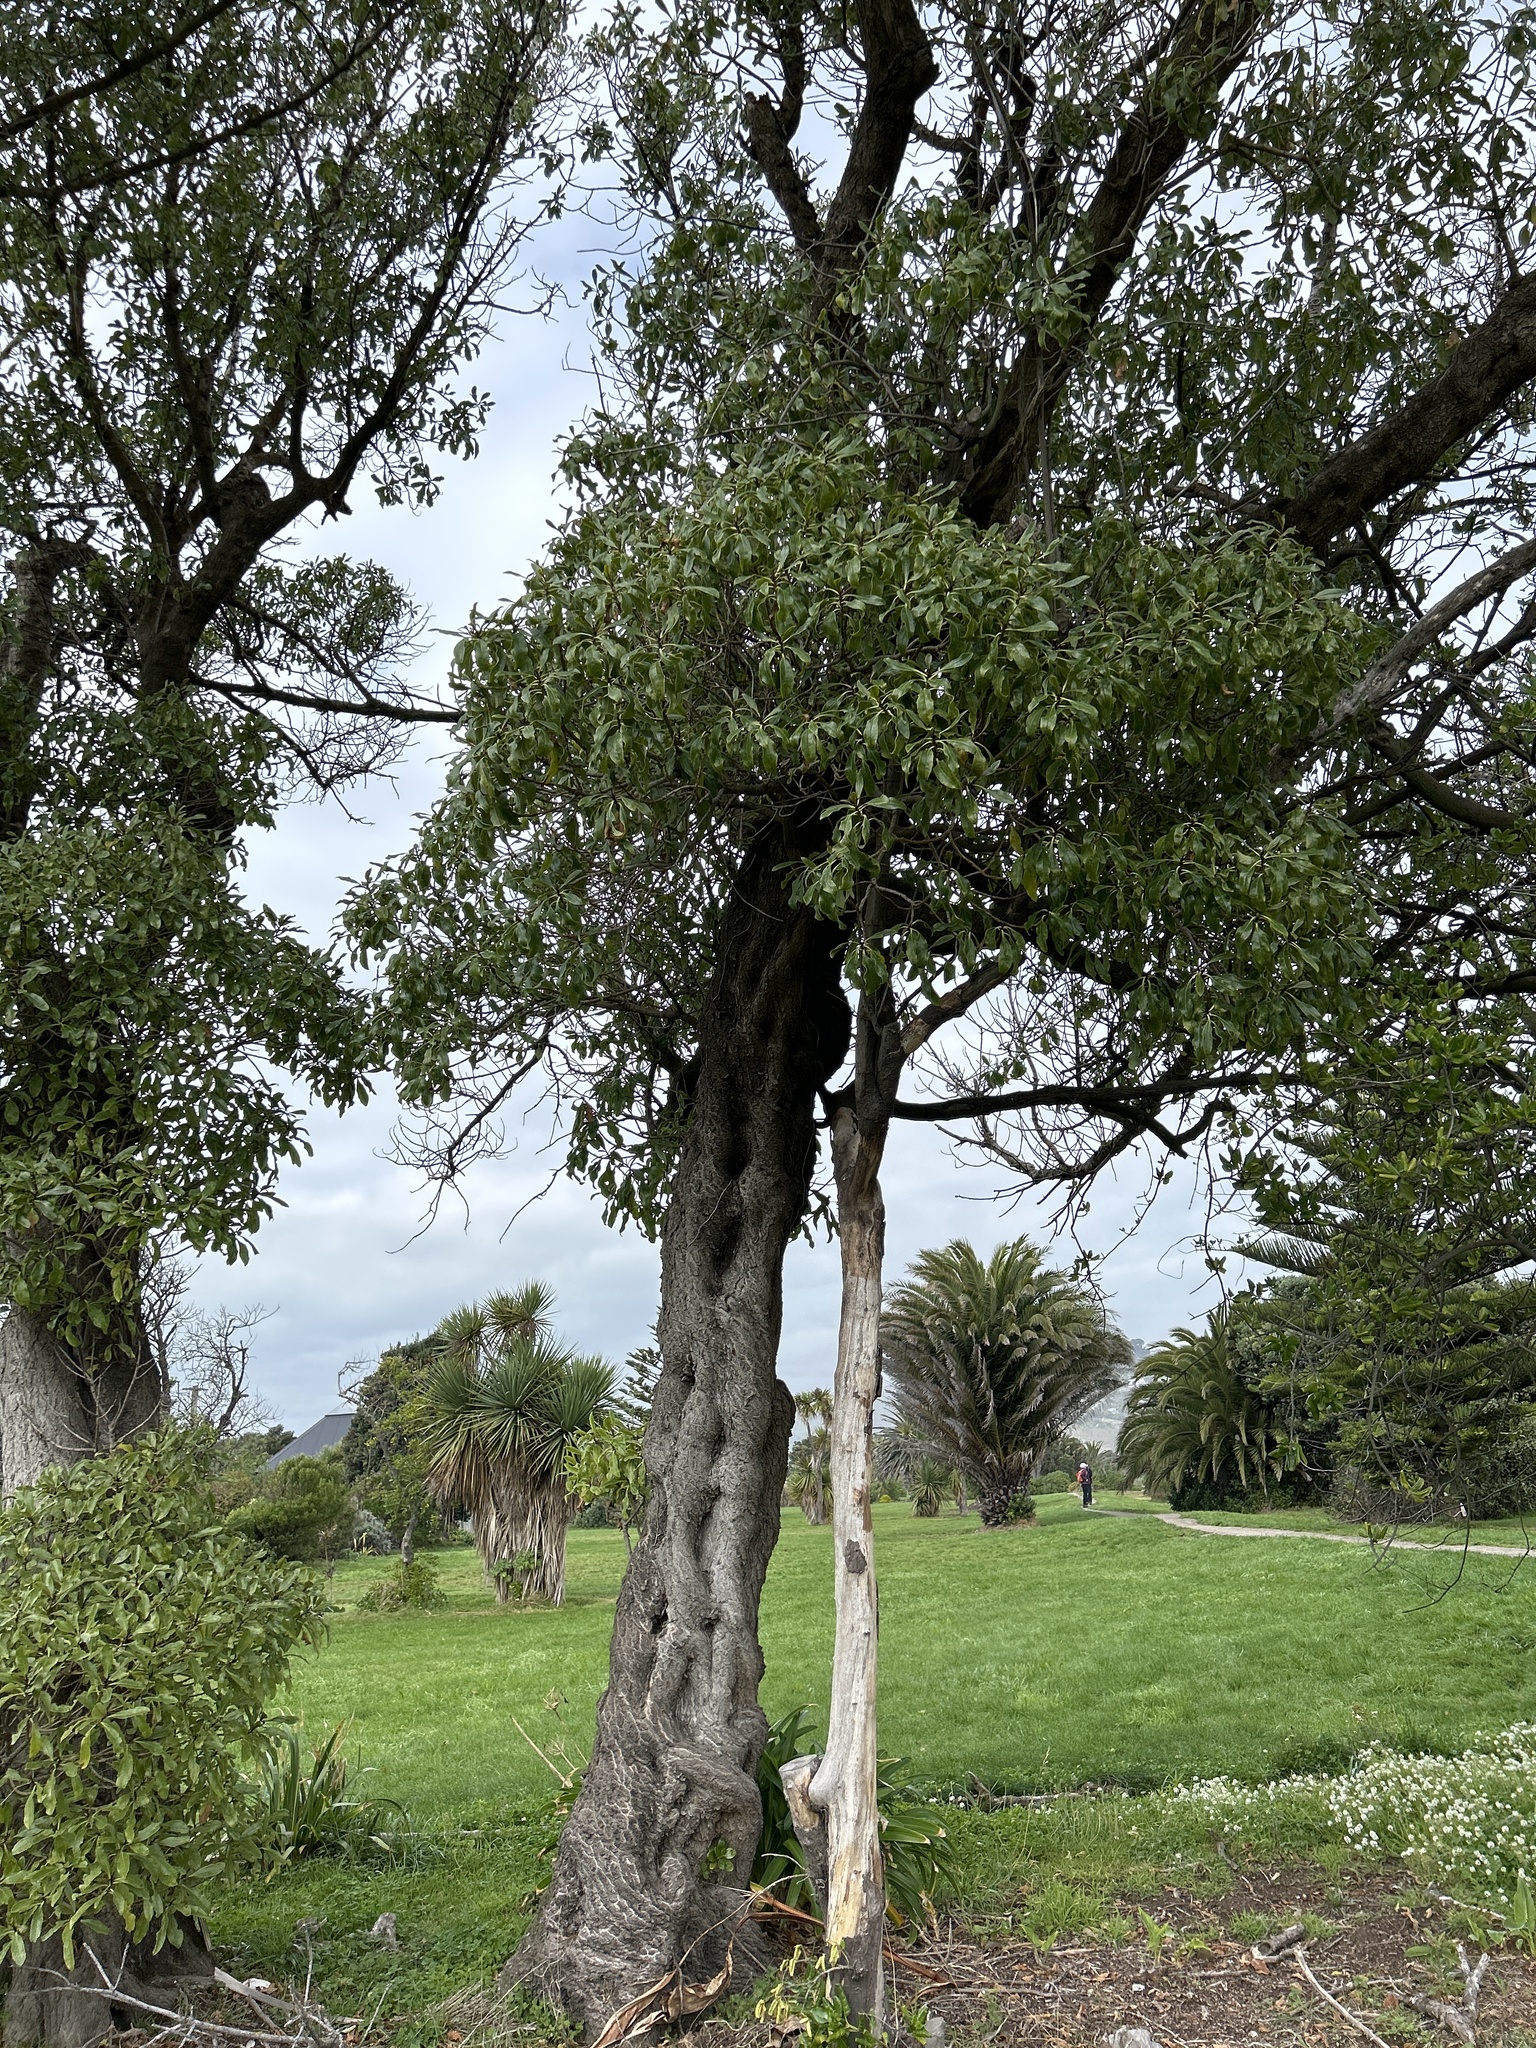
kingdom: Plantae
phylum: Tracheophyta
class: Magnoliopsida
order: Lamiales
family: Scrophulariaceae
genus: Myoporum
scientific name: Myoporum laetum
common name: Ngaio tree
